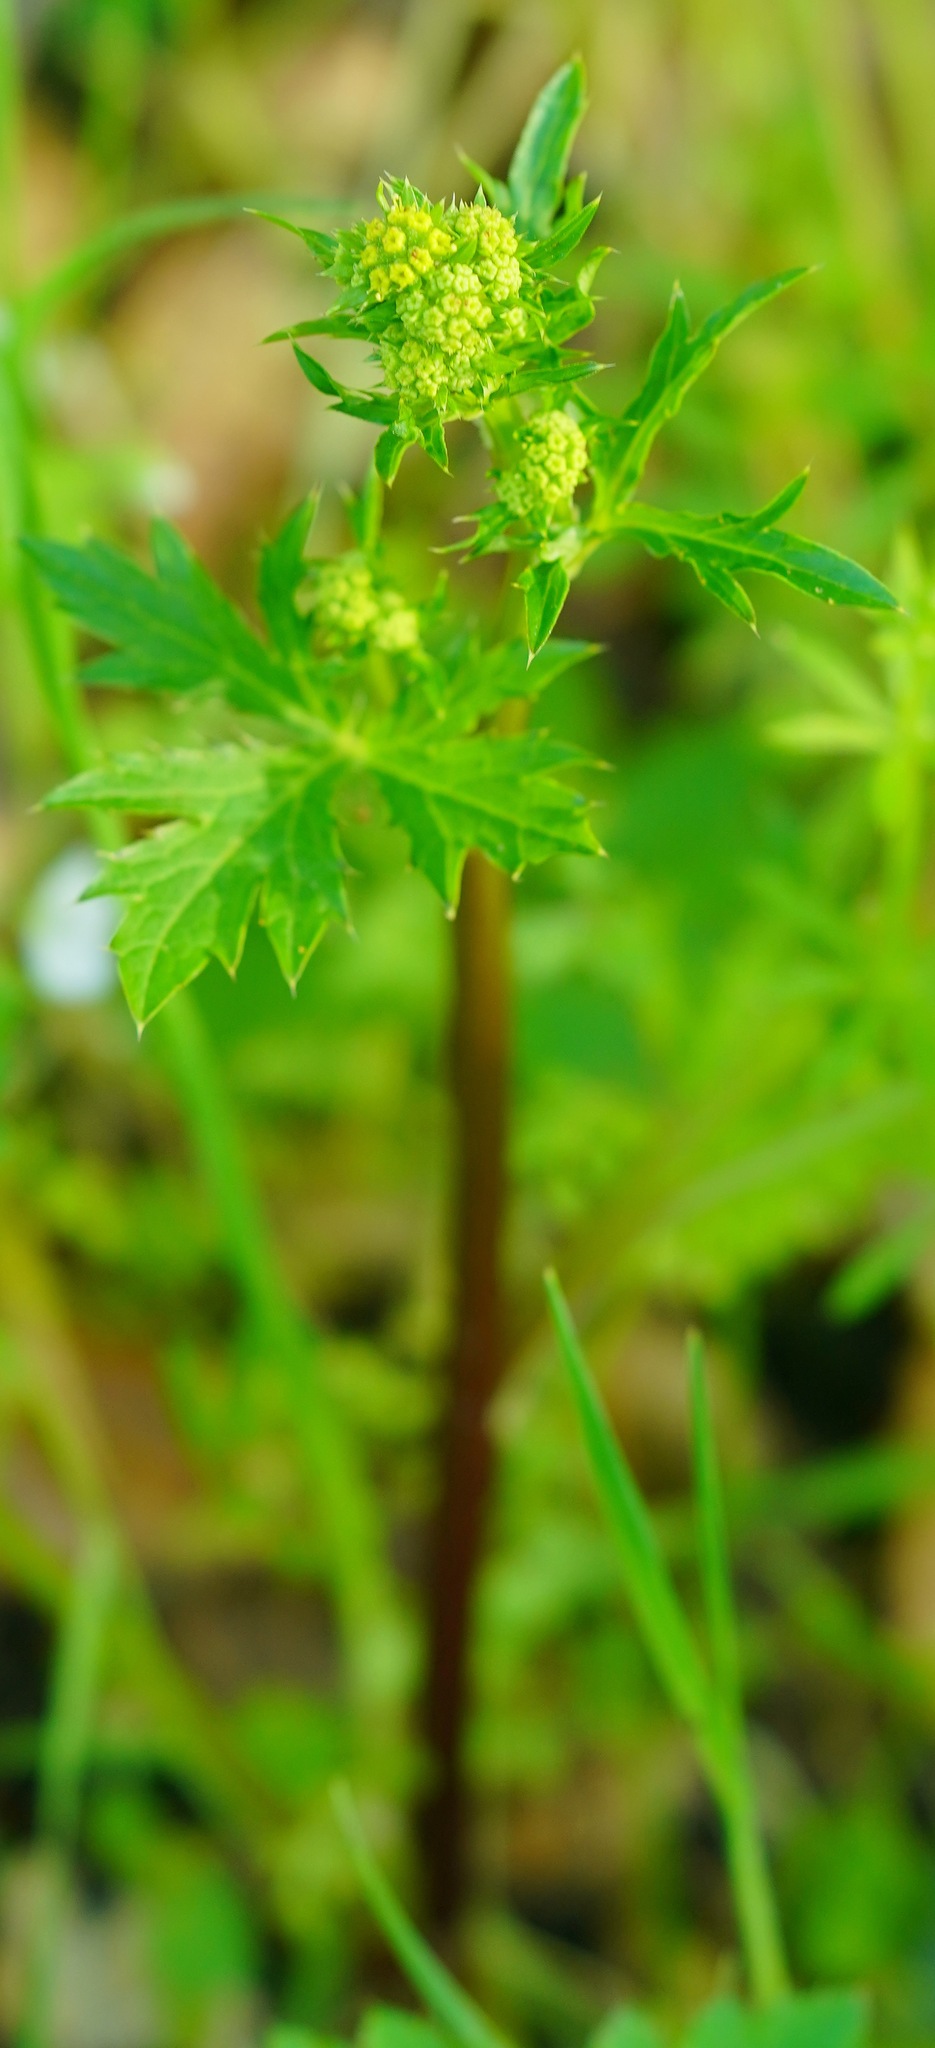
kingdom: Plantae
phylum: Tracheophyta
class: Magnoliopsida
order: Apiales
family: Apiaceae
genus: Sanicula
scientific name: Sanicula crassicaulis
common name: Western snakeroot
